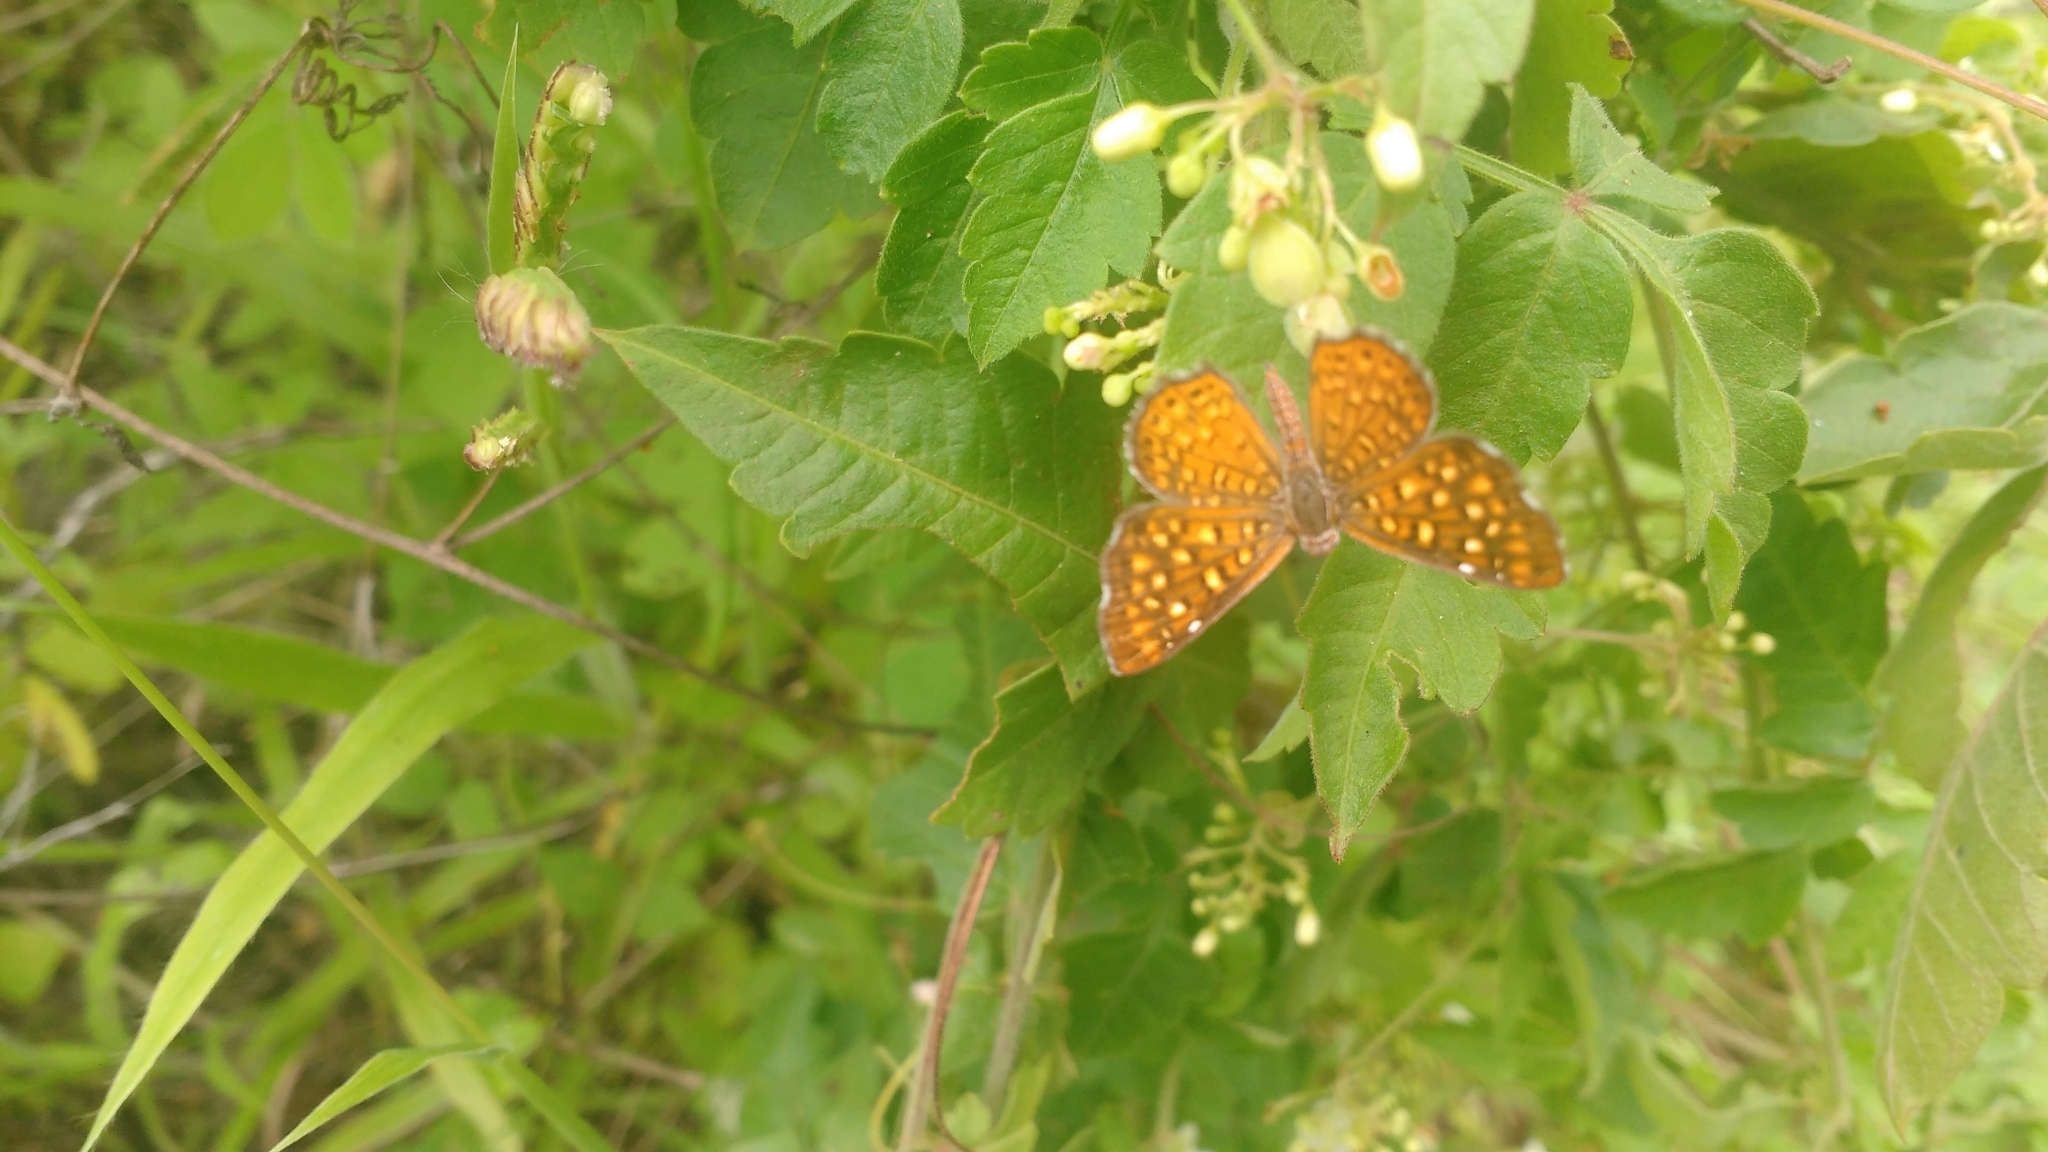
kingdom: Animalia
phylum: Arthropoda
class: Insecta
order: Lepidoptera
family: Riodinidae
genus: Sertania
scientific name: Sertania lambedor
